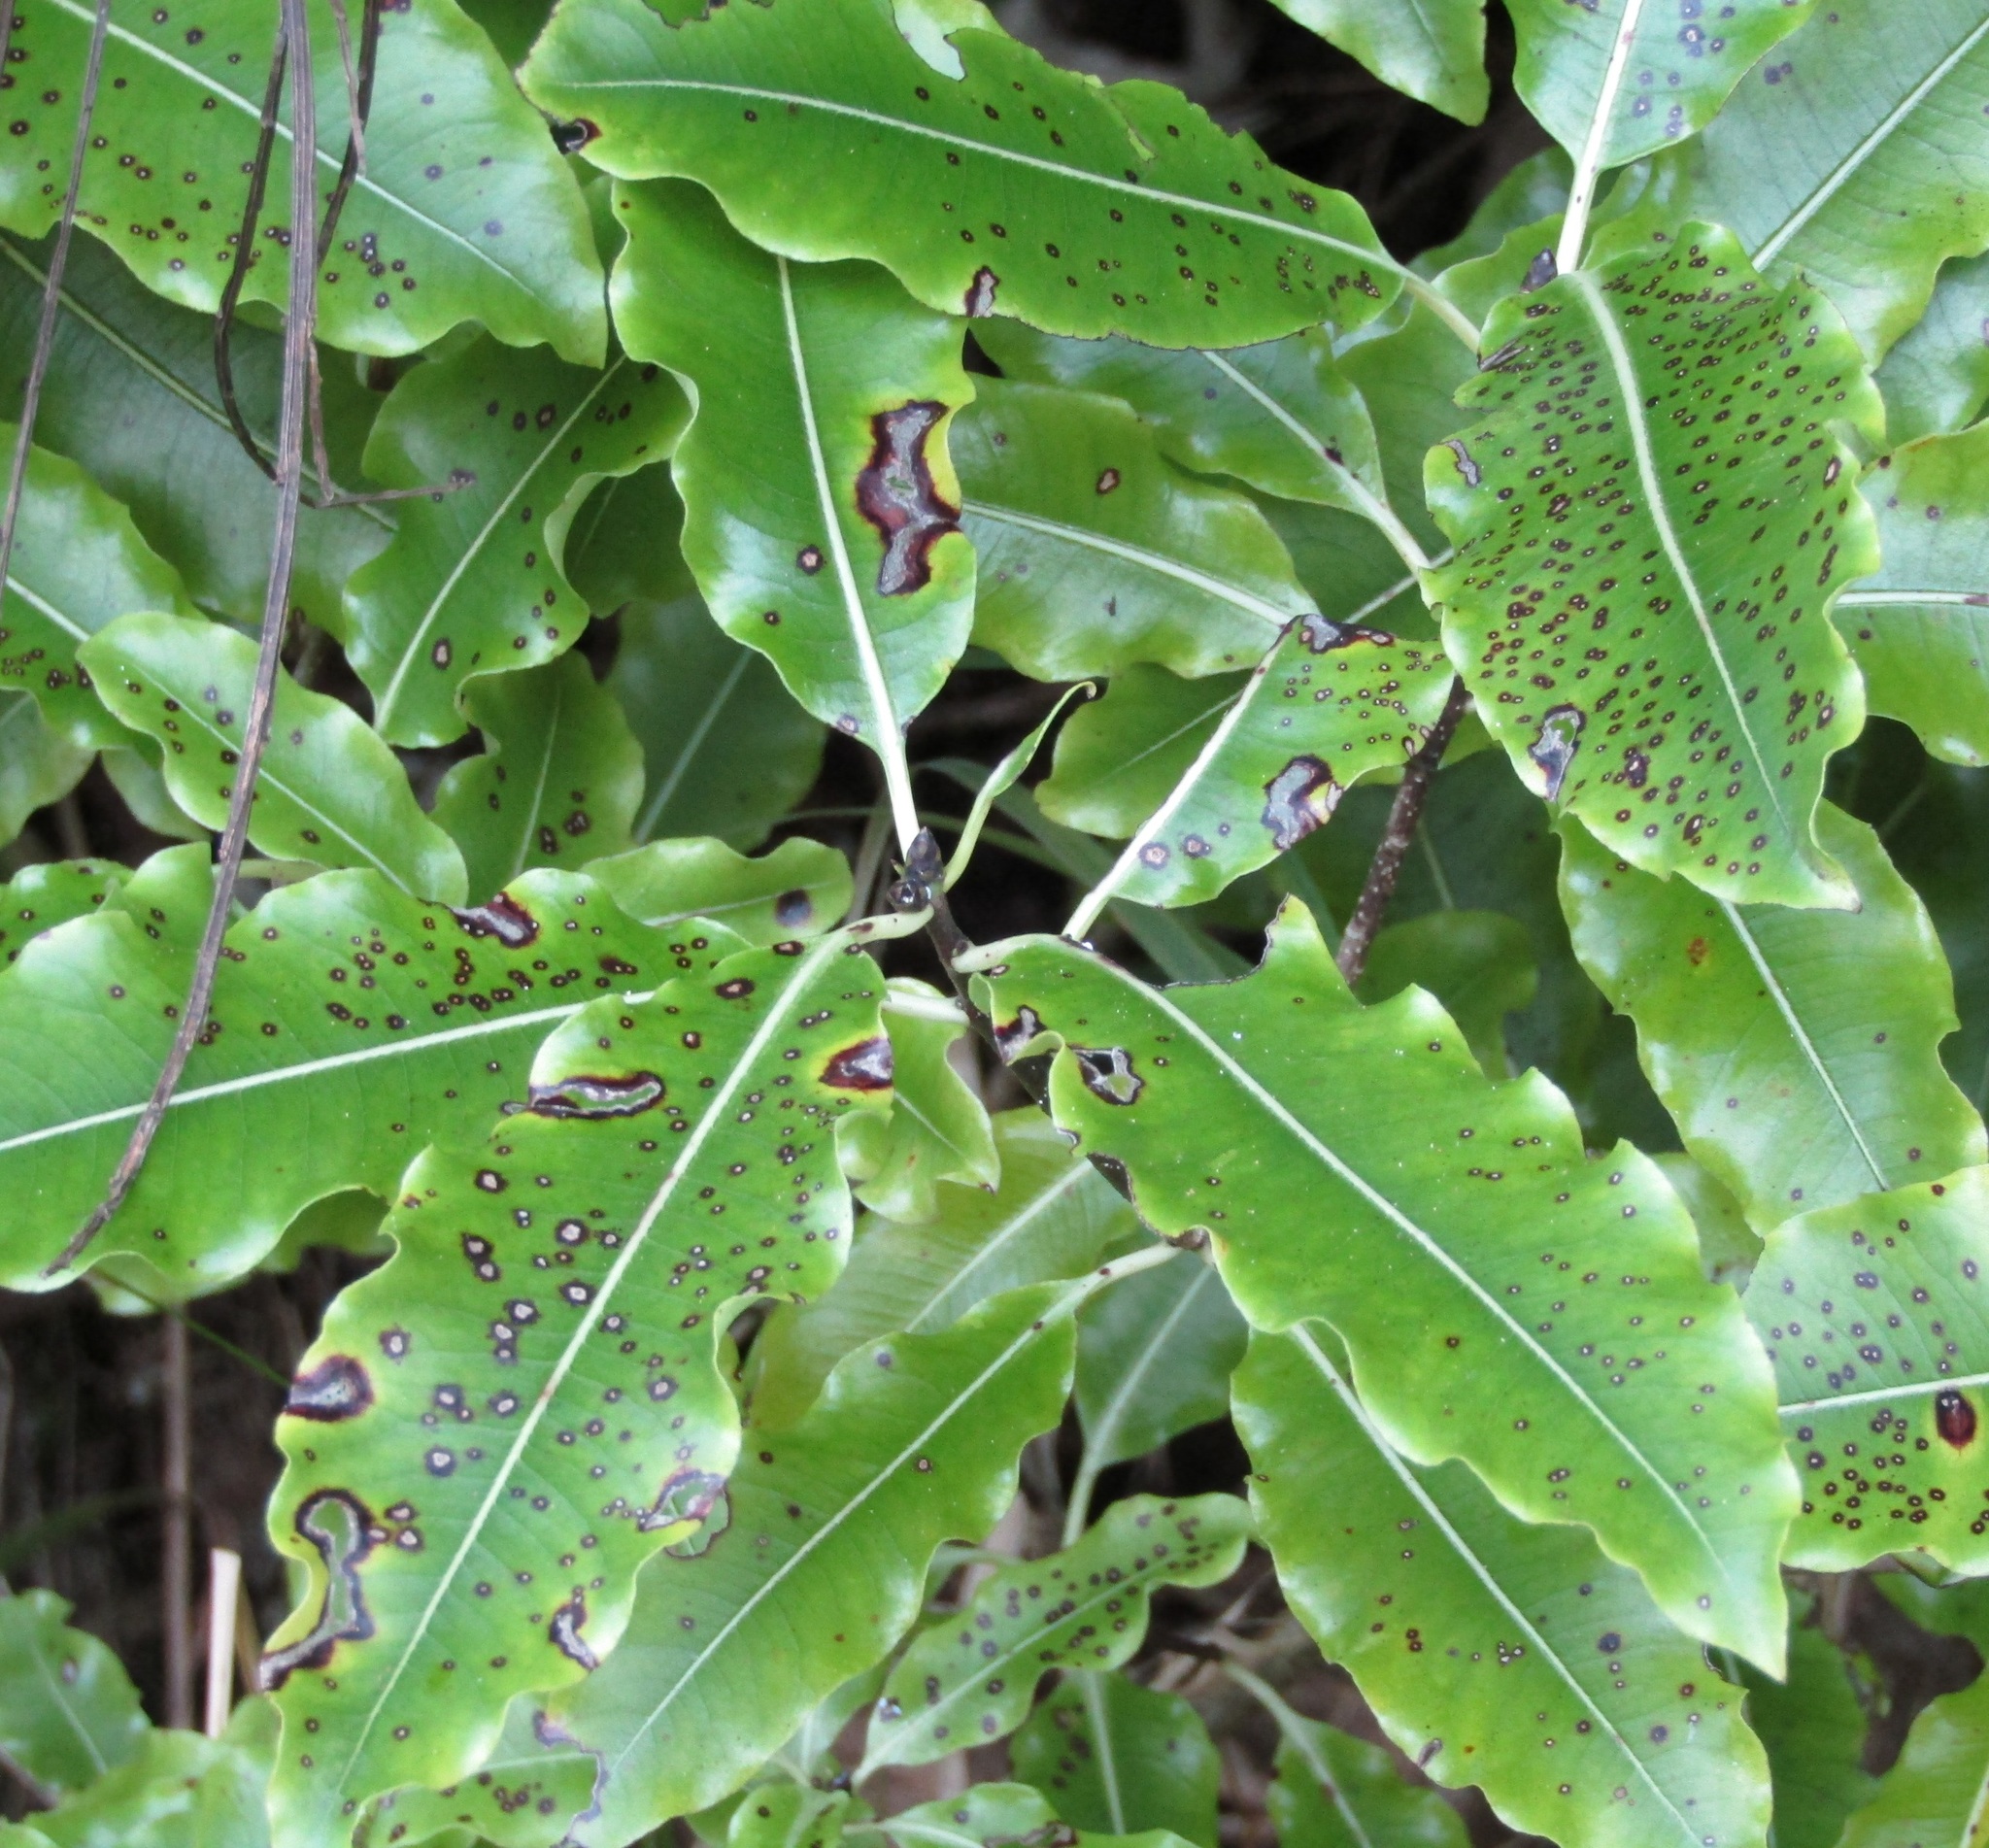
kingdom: Plantae
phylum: Tracheophyta
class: Magnoliopsida
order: Apiales
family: Pittosporaceae
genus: Pittosporum
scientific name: Pittosporum eugenioides
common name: Lemonwood
